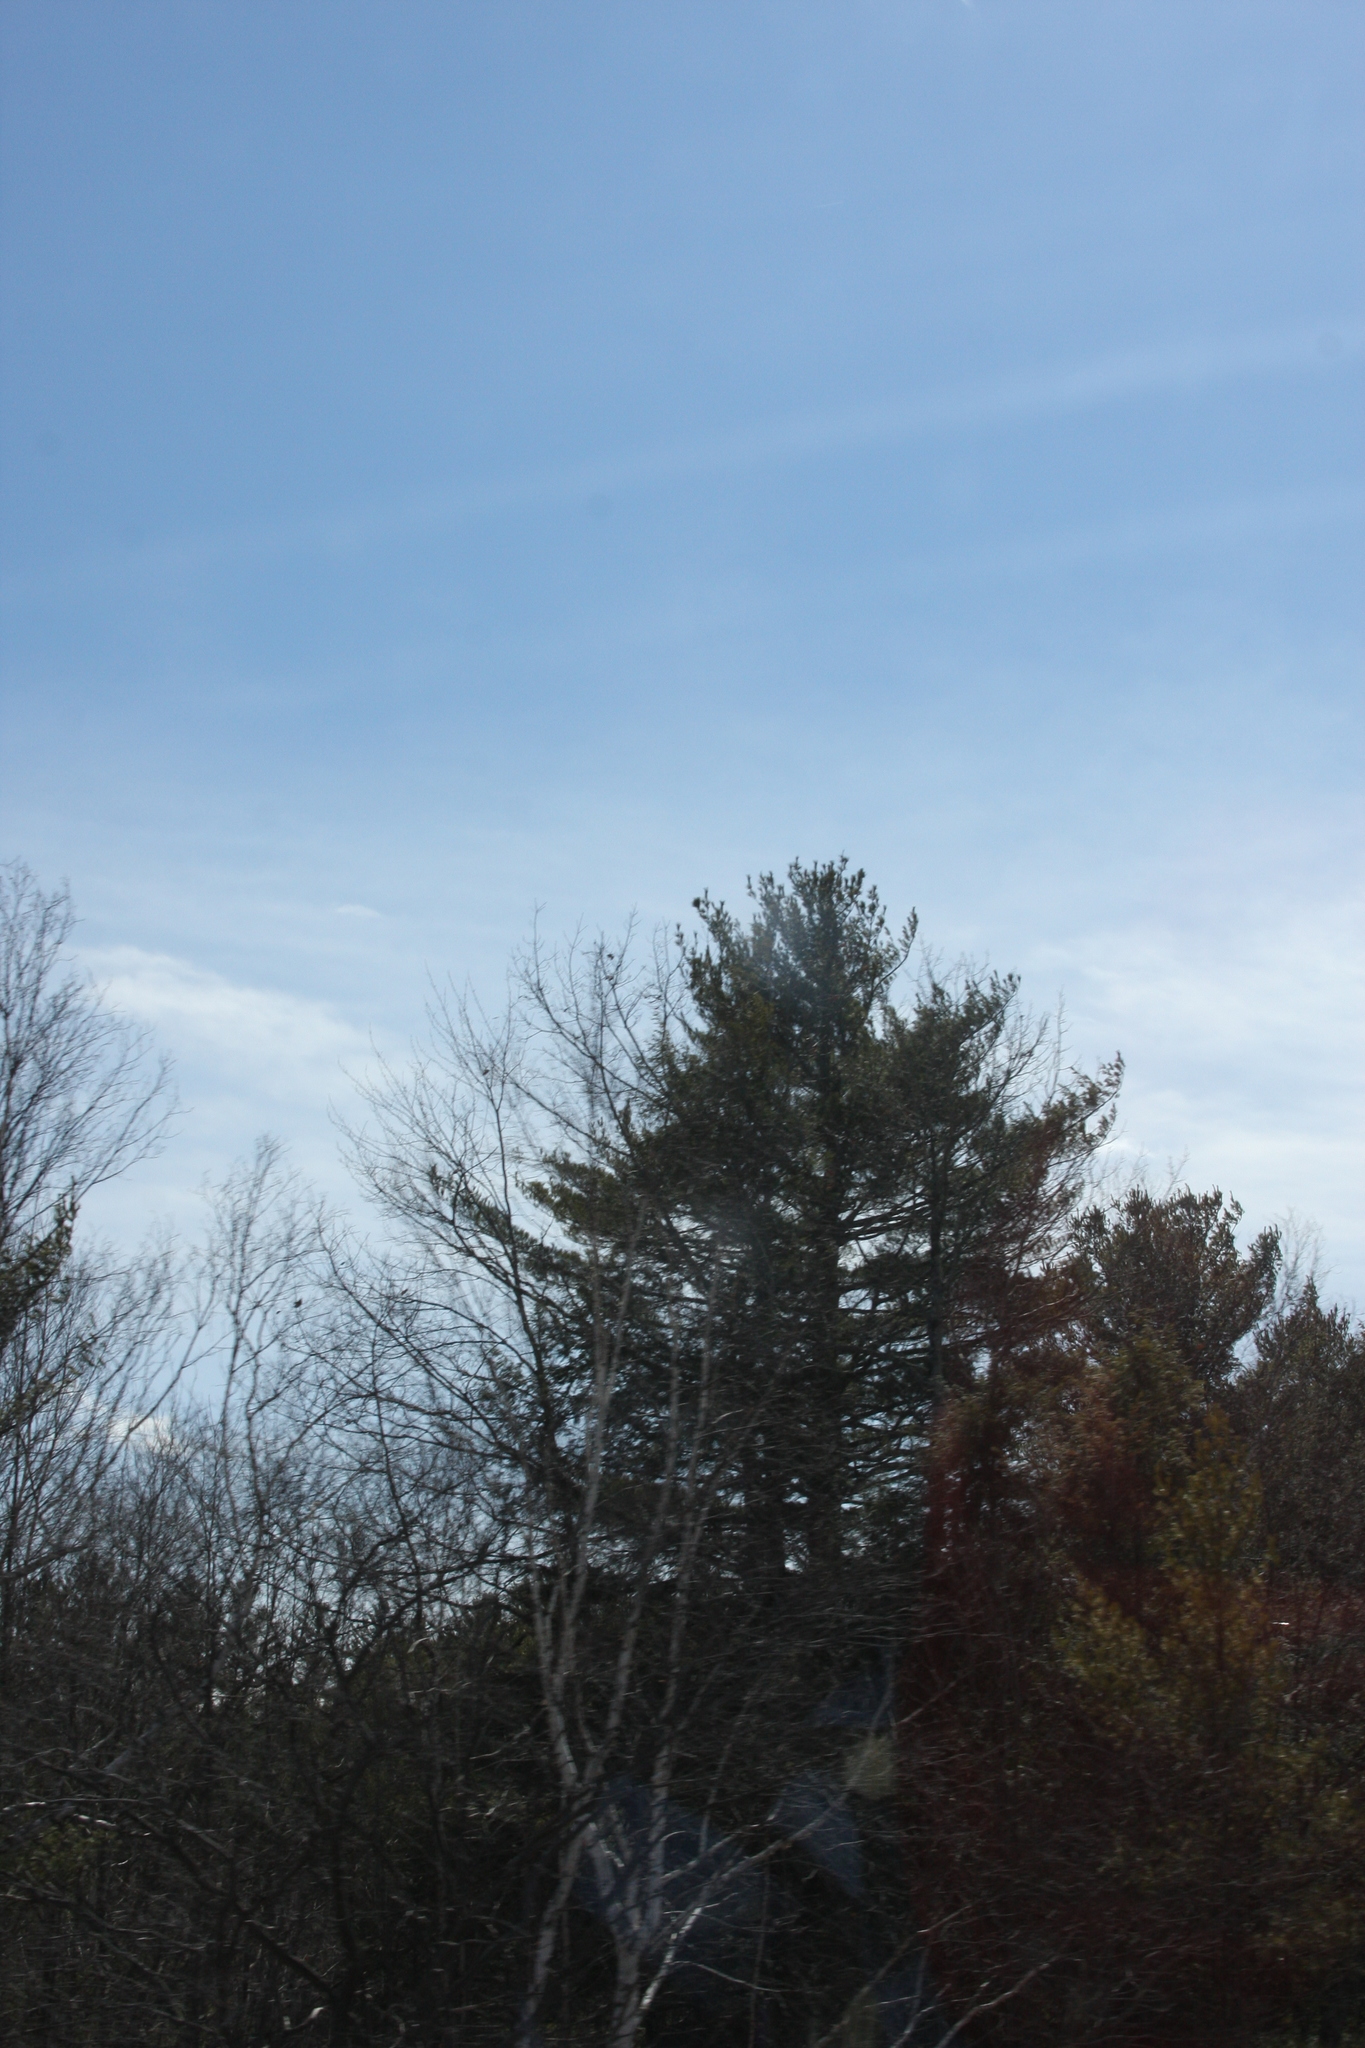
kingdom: Plantae
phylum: Tracheophyta
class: Pinopsida
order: Pinales
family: Pinaceae
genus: Pinus
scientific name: Pinus strobus
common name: Weymouth pine
